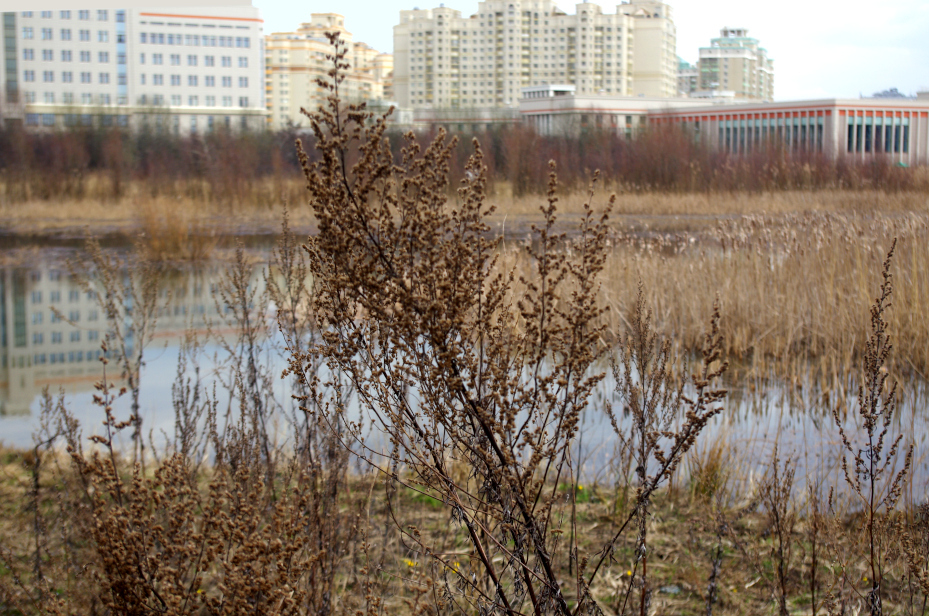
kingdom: Plantae
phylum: Tracheophyta
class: Magnoliopsida
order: Asterales
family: Asteraceae
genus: Artemisia
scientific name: Artemisia vulgaris
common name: Mugwort
